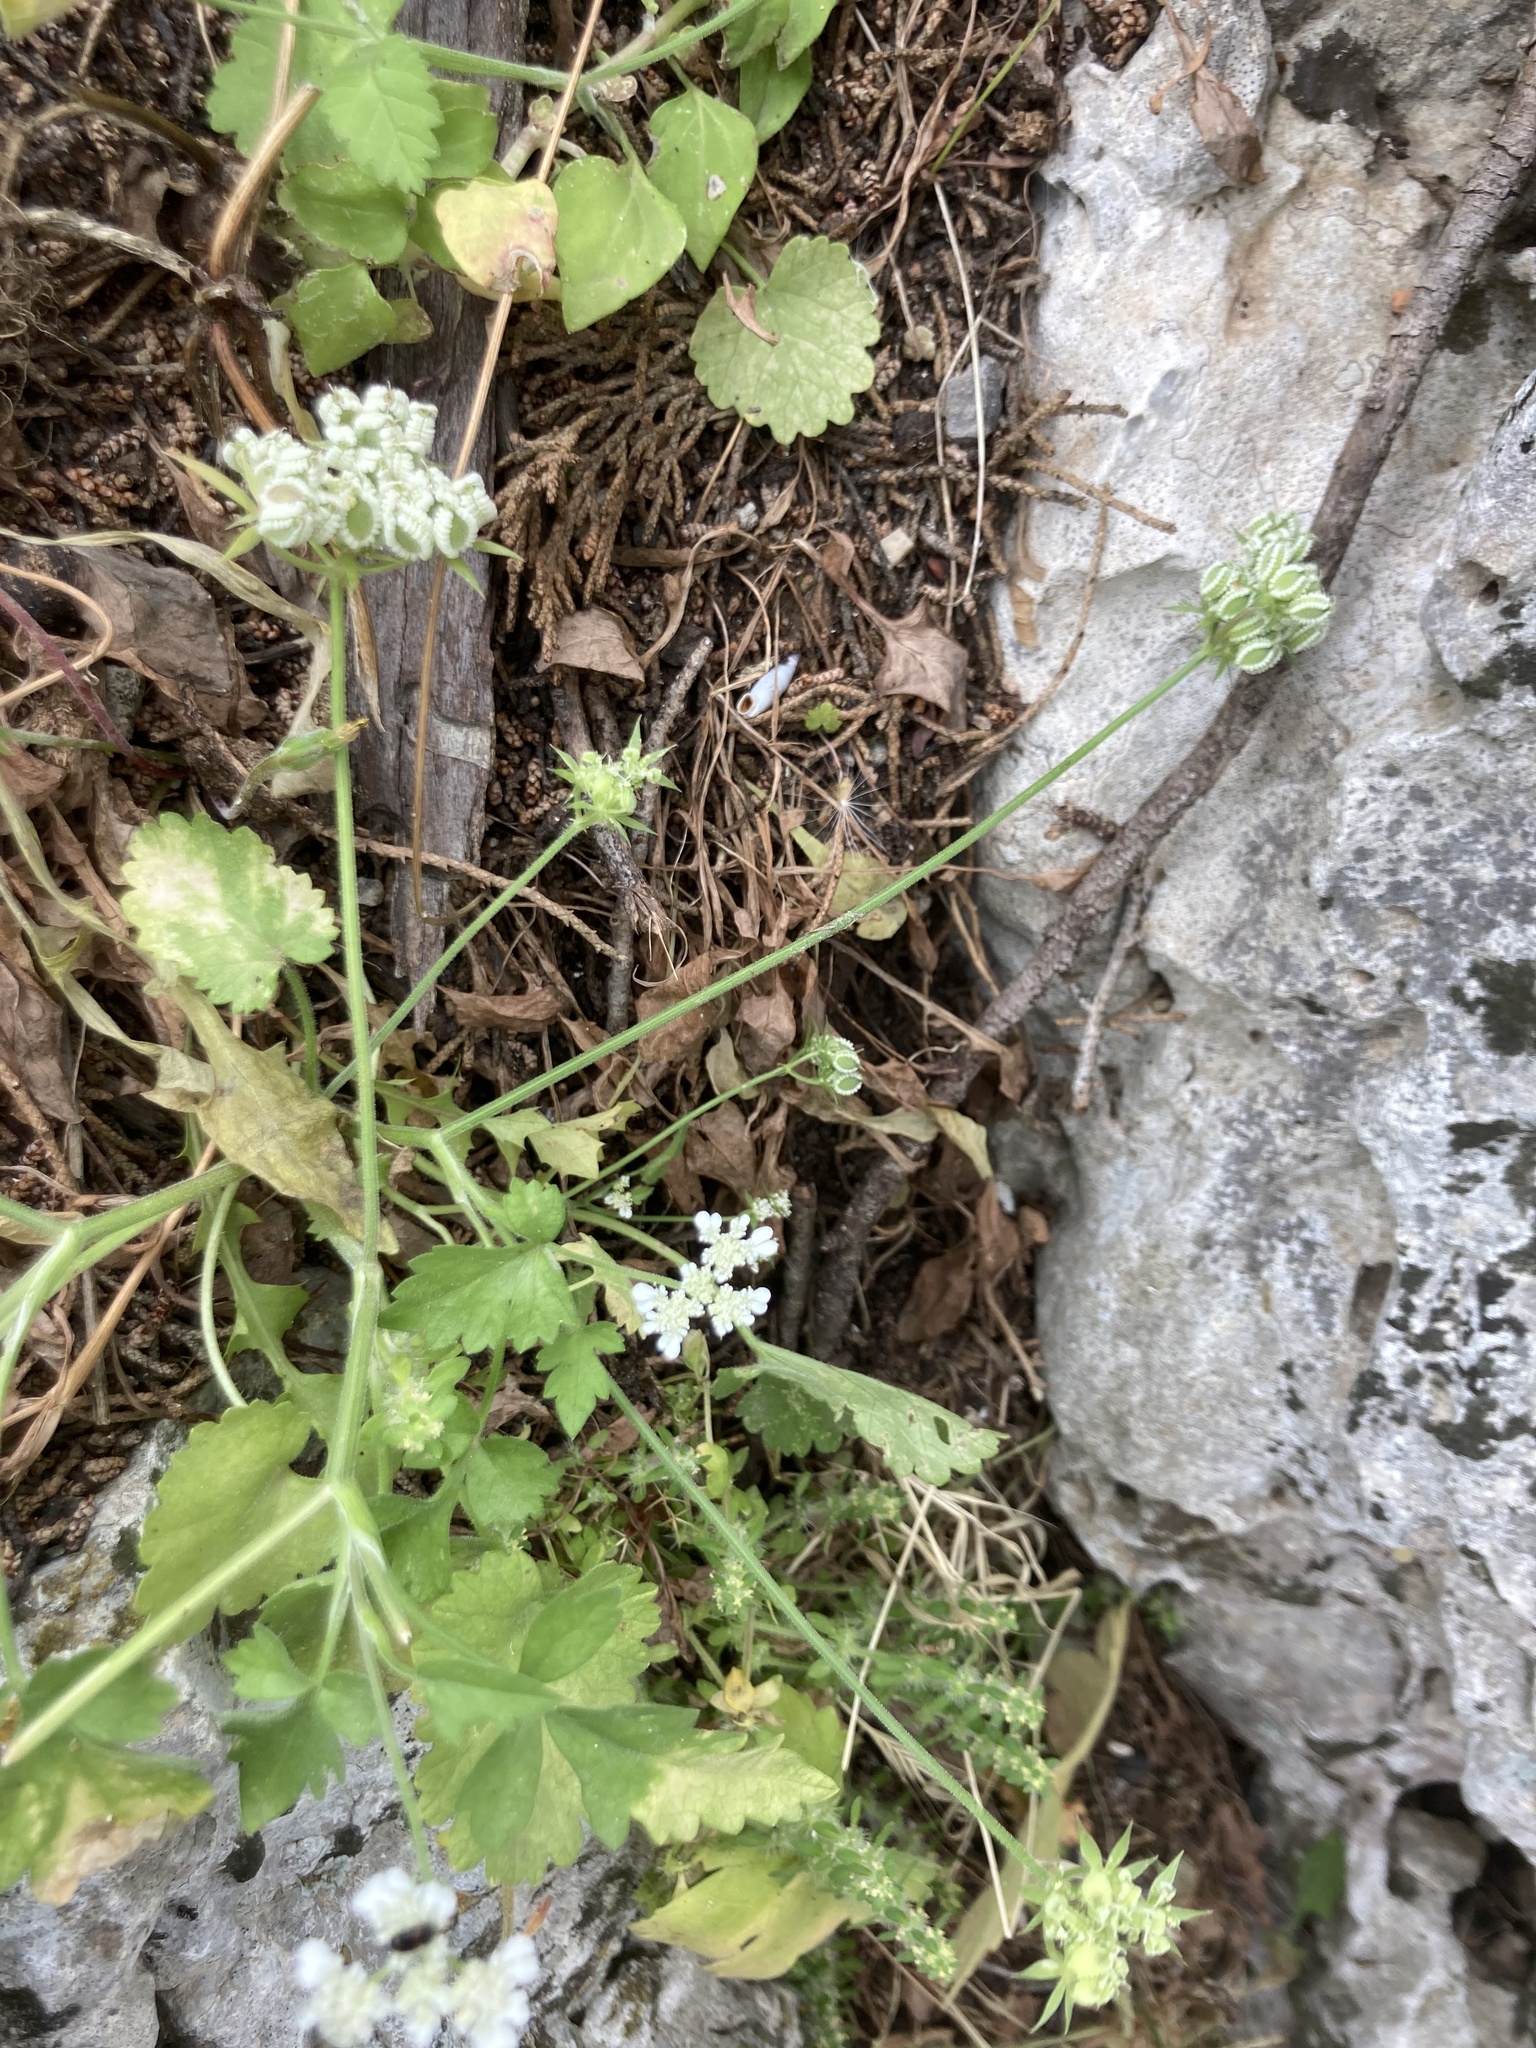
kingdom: Plantae
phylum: Tracheophyta
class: Magnoliopsida
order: Apiales
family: Apiaceae
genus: Tordylium
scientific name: Tordylium
